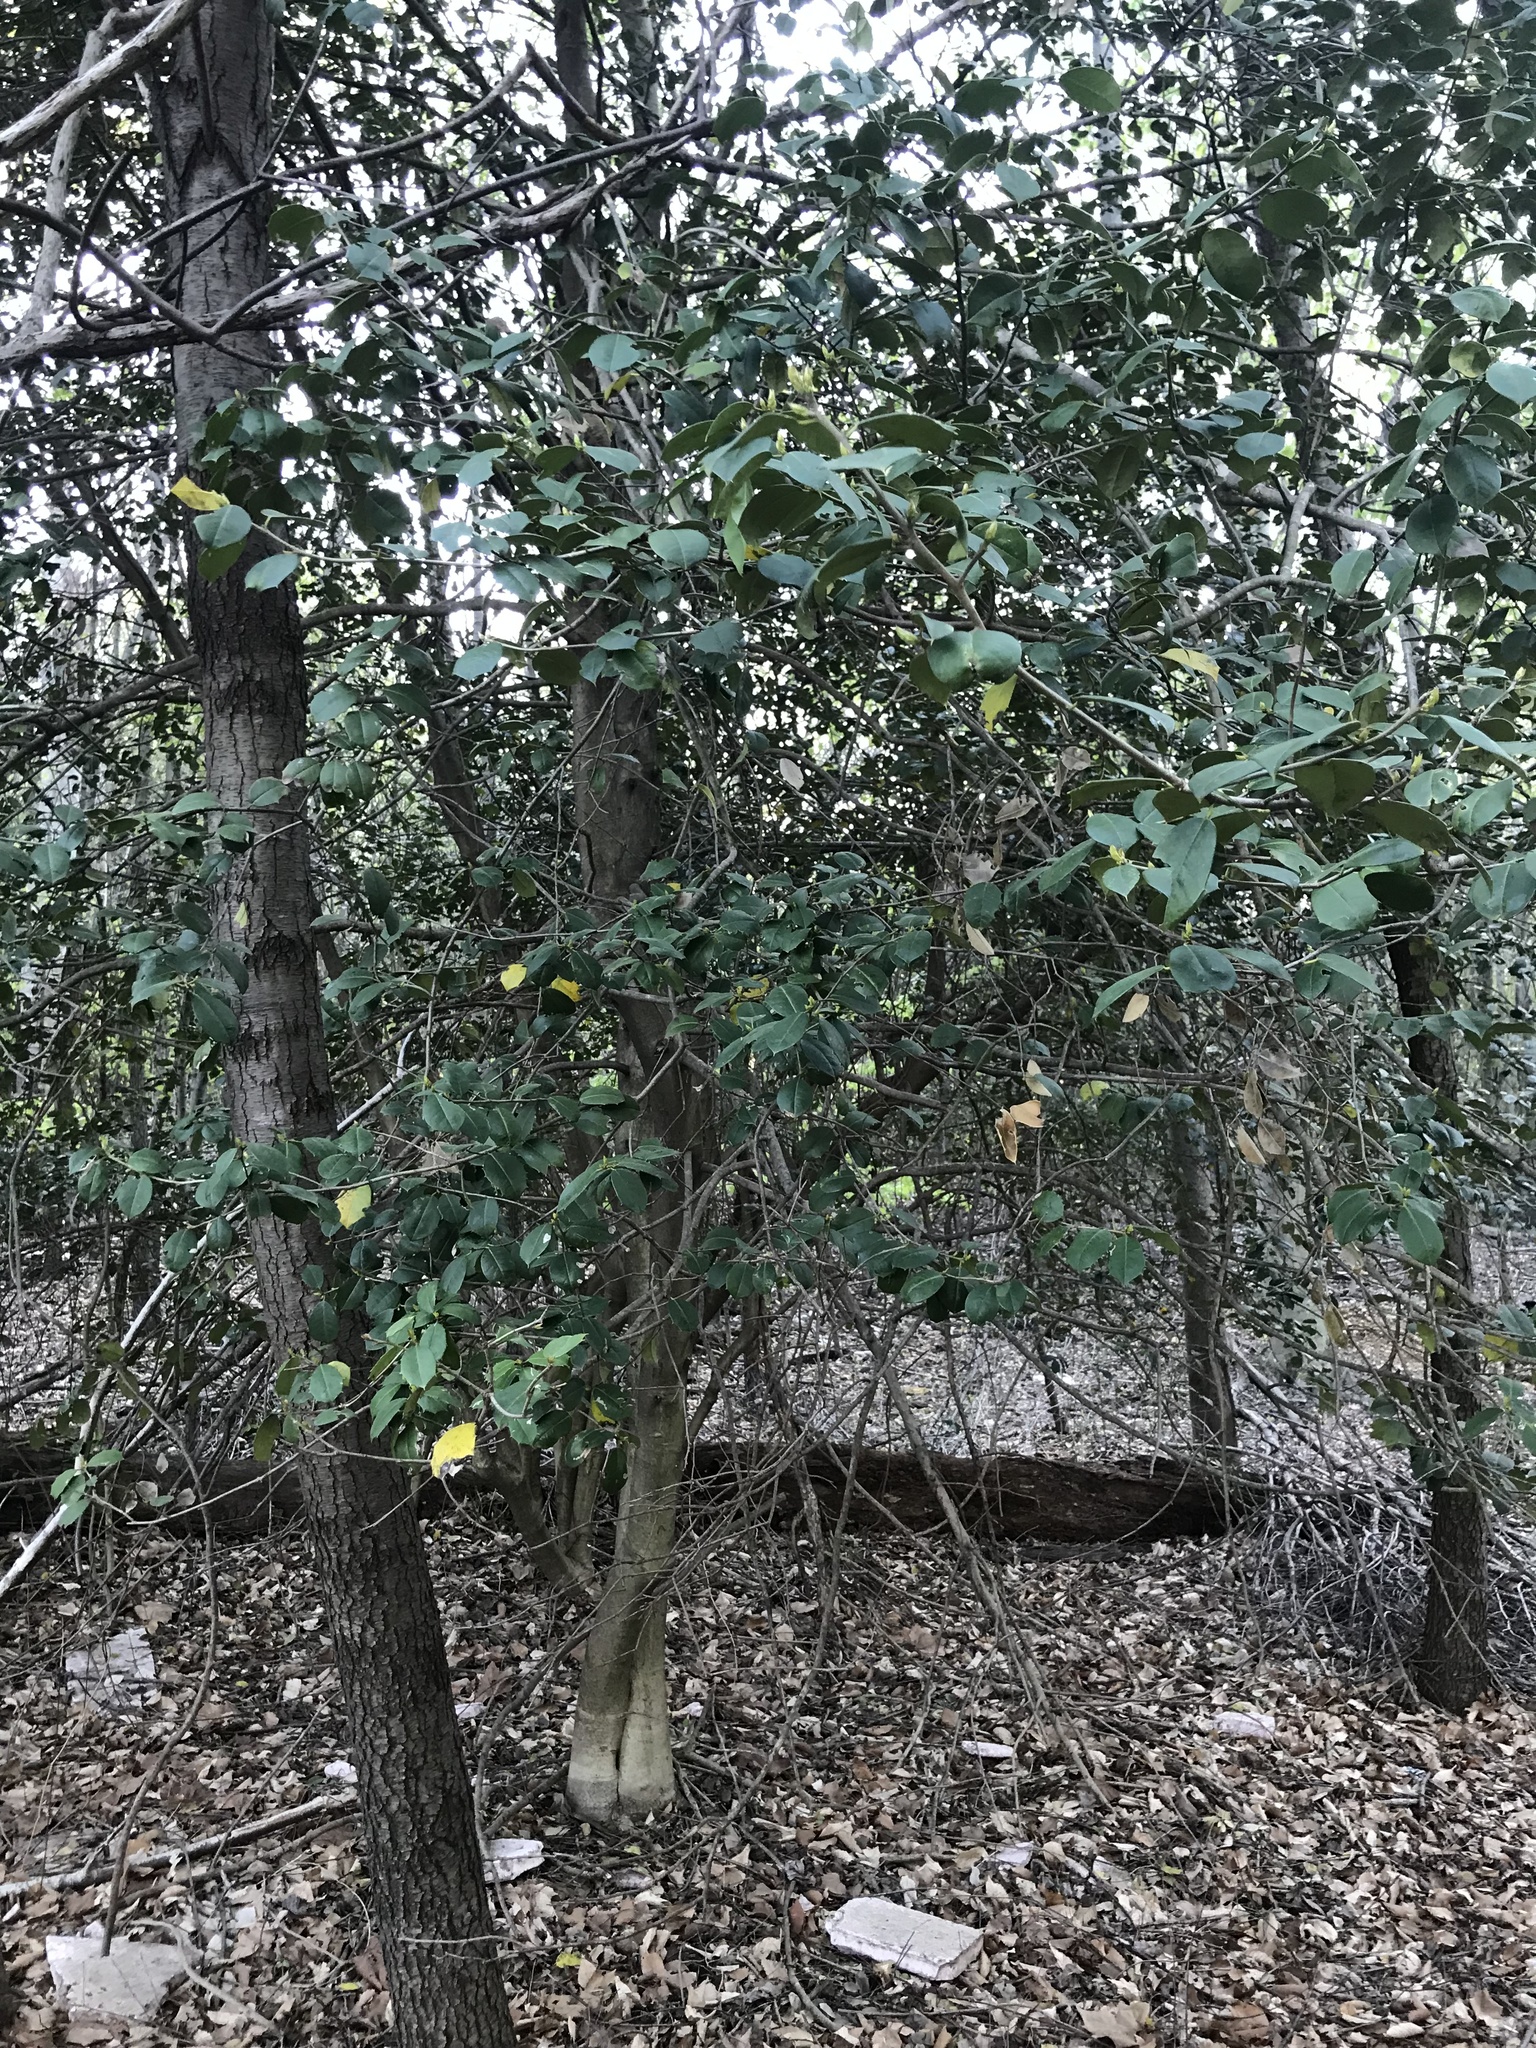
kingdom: Plantae
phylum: Tracheophyta
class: Magnoliopsida
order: Aquifoliales
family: Aquifoliaceae
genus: Ilex
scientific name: Ilex opaca
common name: American holly
